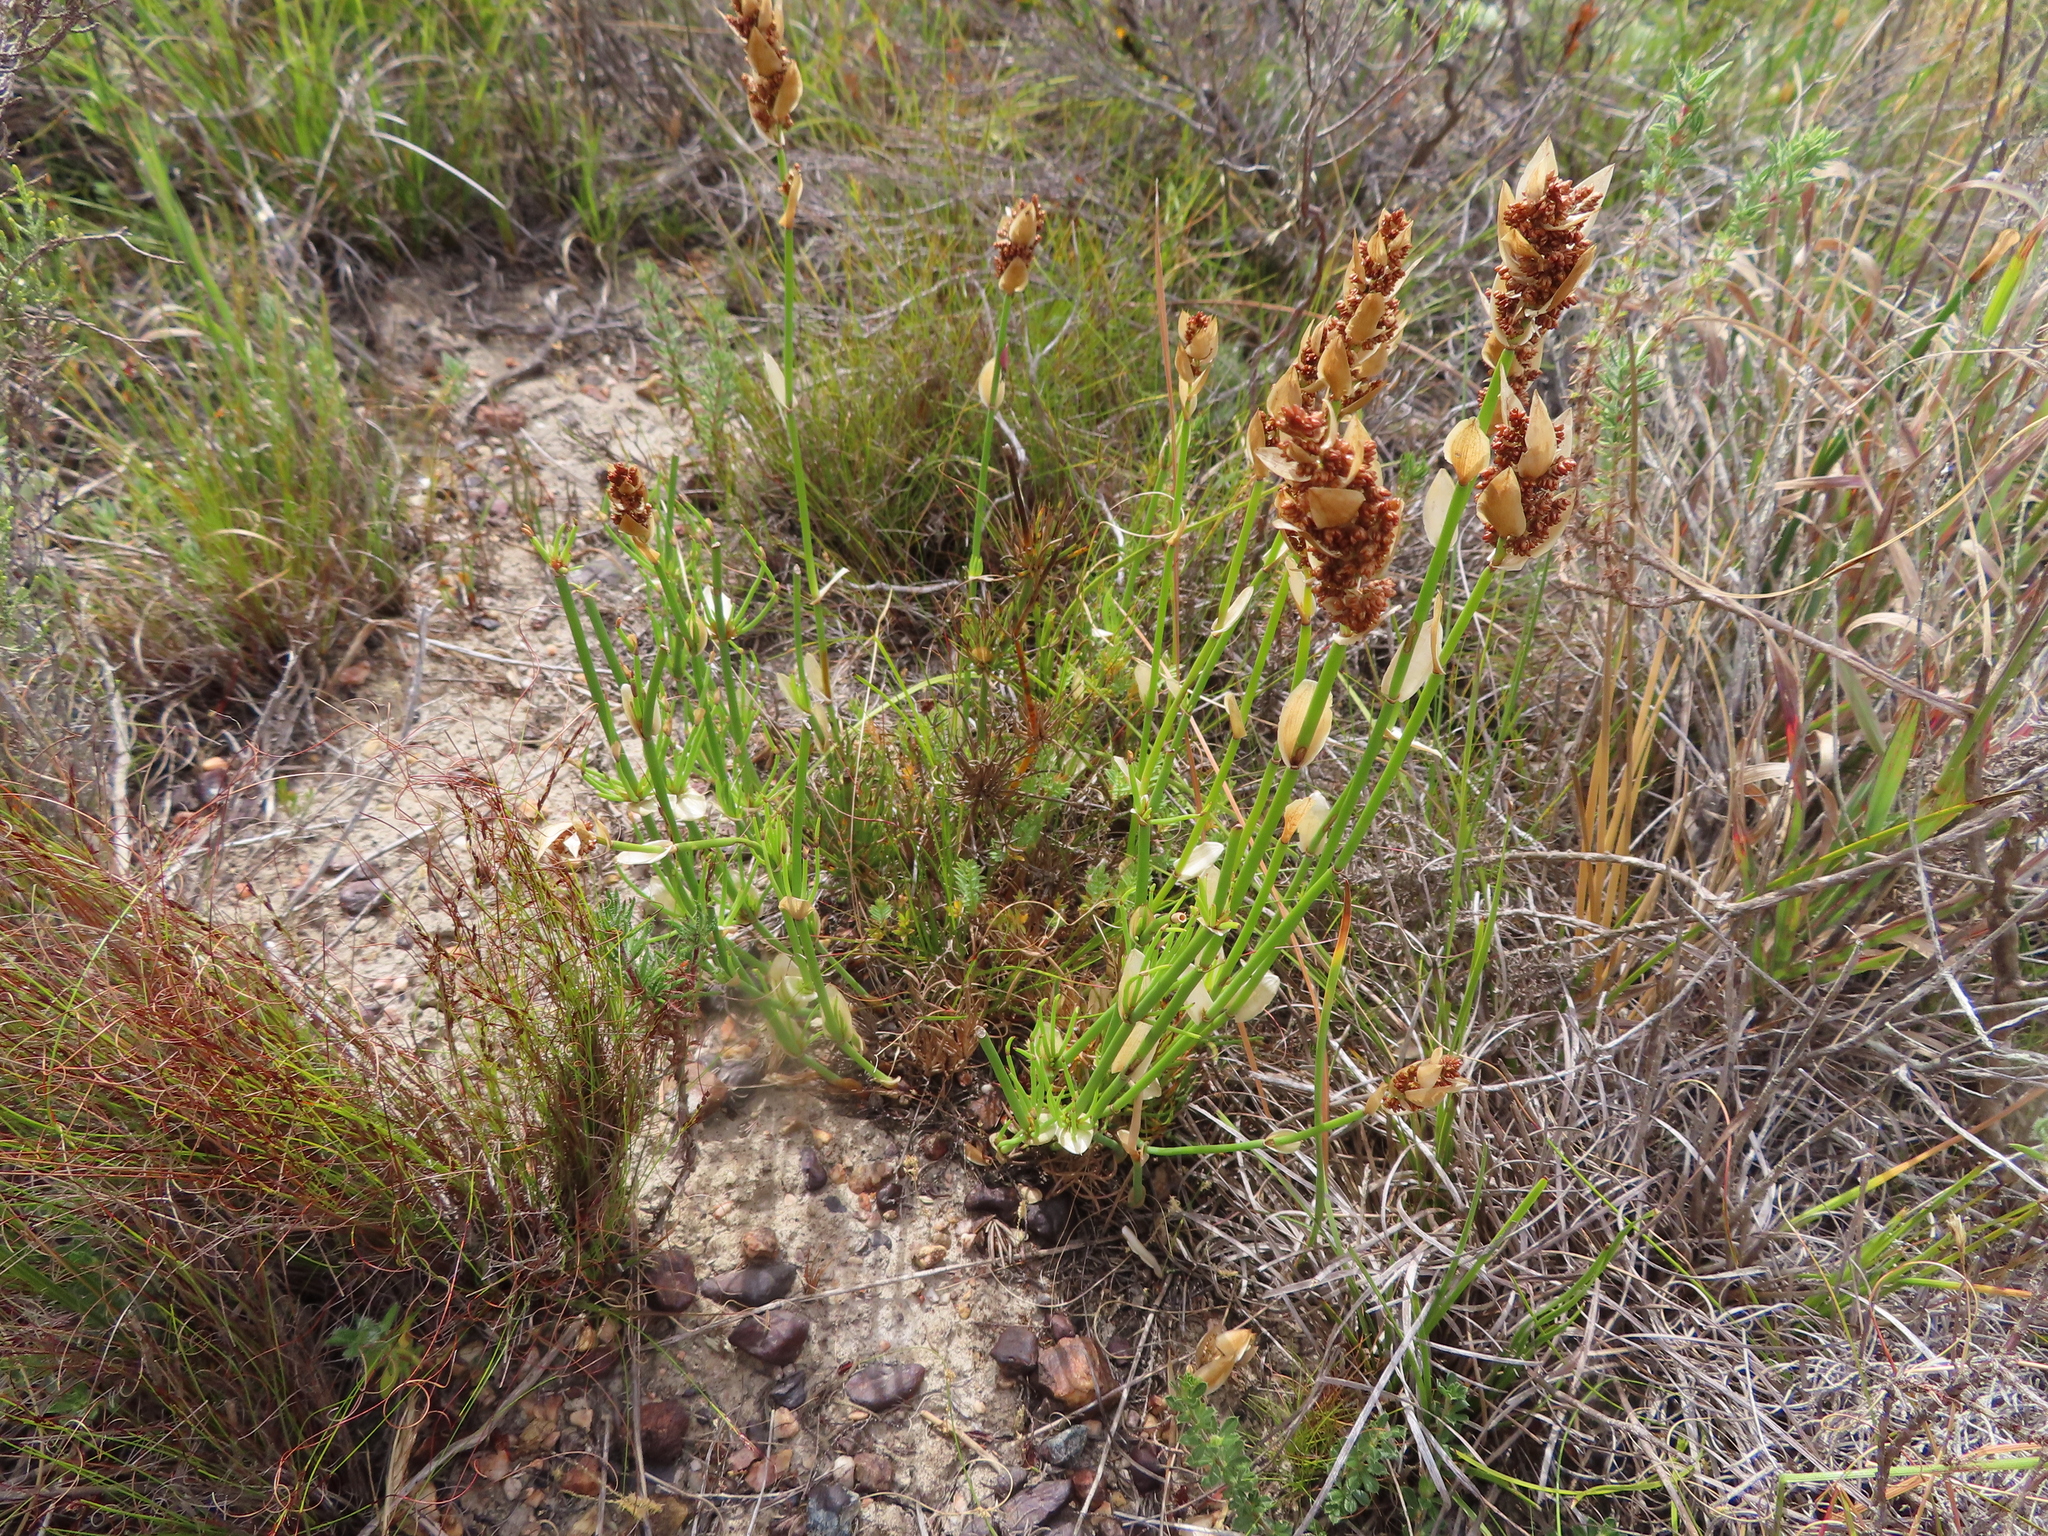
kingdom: Plantae
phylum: Tracheophyta
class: Liliopsida
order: Poales
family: Restionaceae
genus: Elegia
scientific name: Elegia extensa
